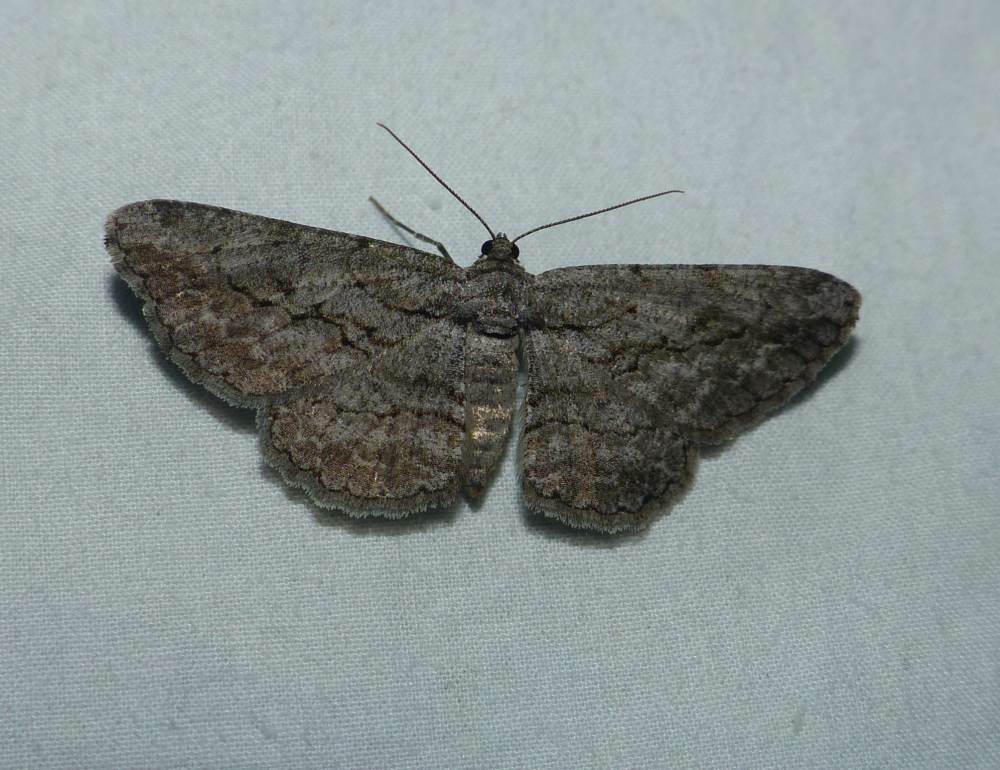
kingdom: Animalia
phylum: Arthropoda
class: Insecta
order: Lepidoptera
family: Geometridae
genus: Anavitrinella
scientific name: Anavitrinella pampinaria
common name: Common gray
